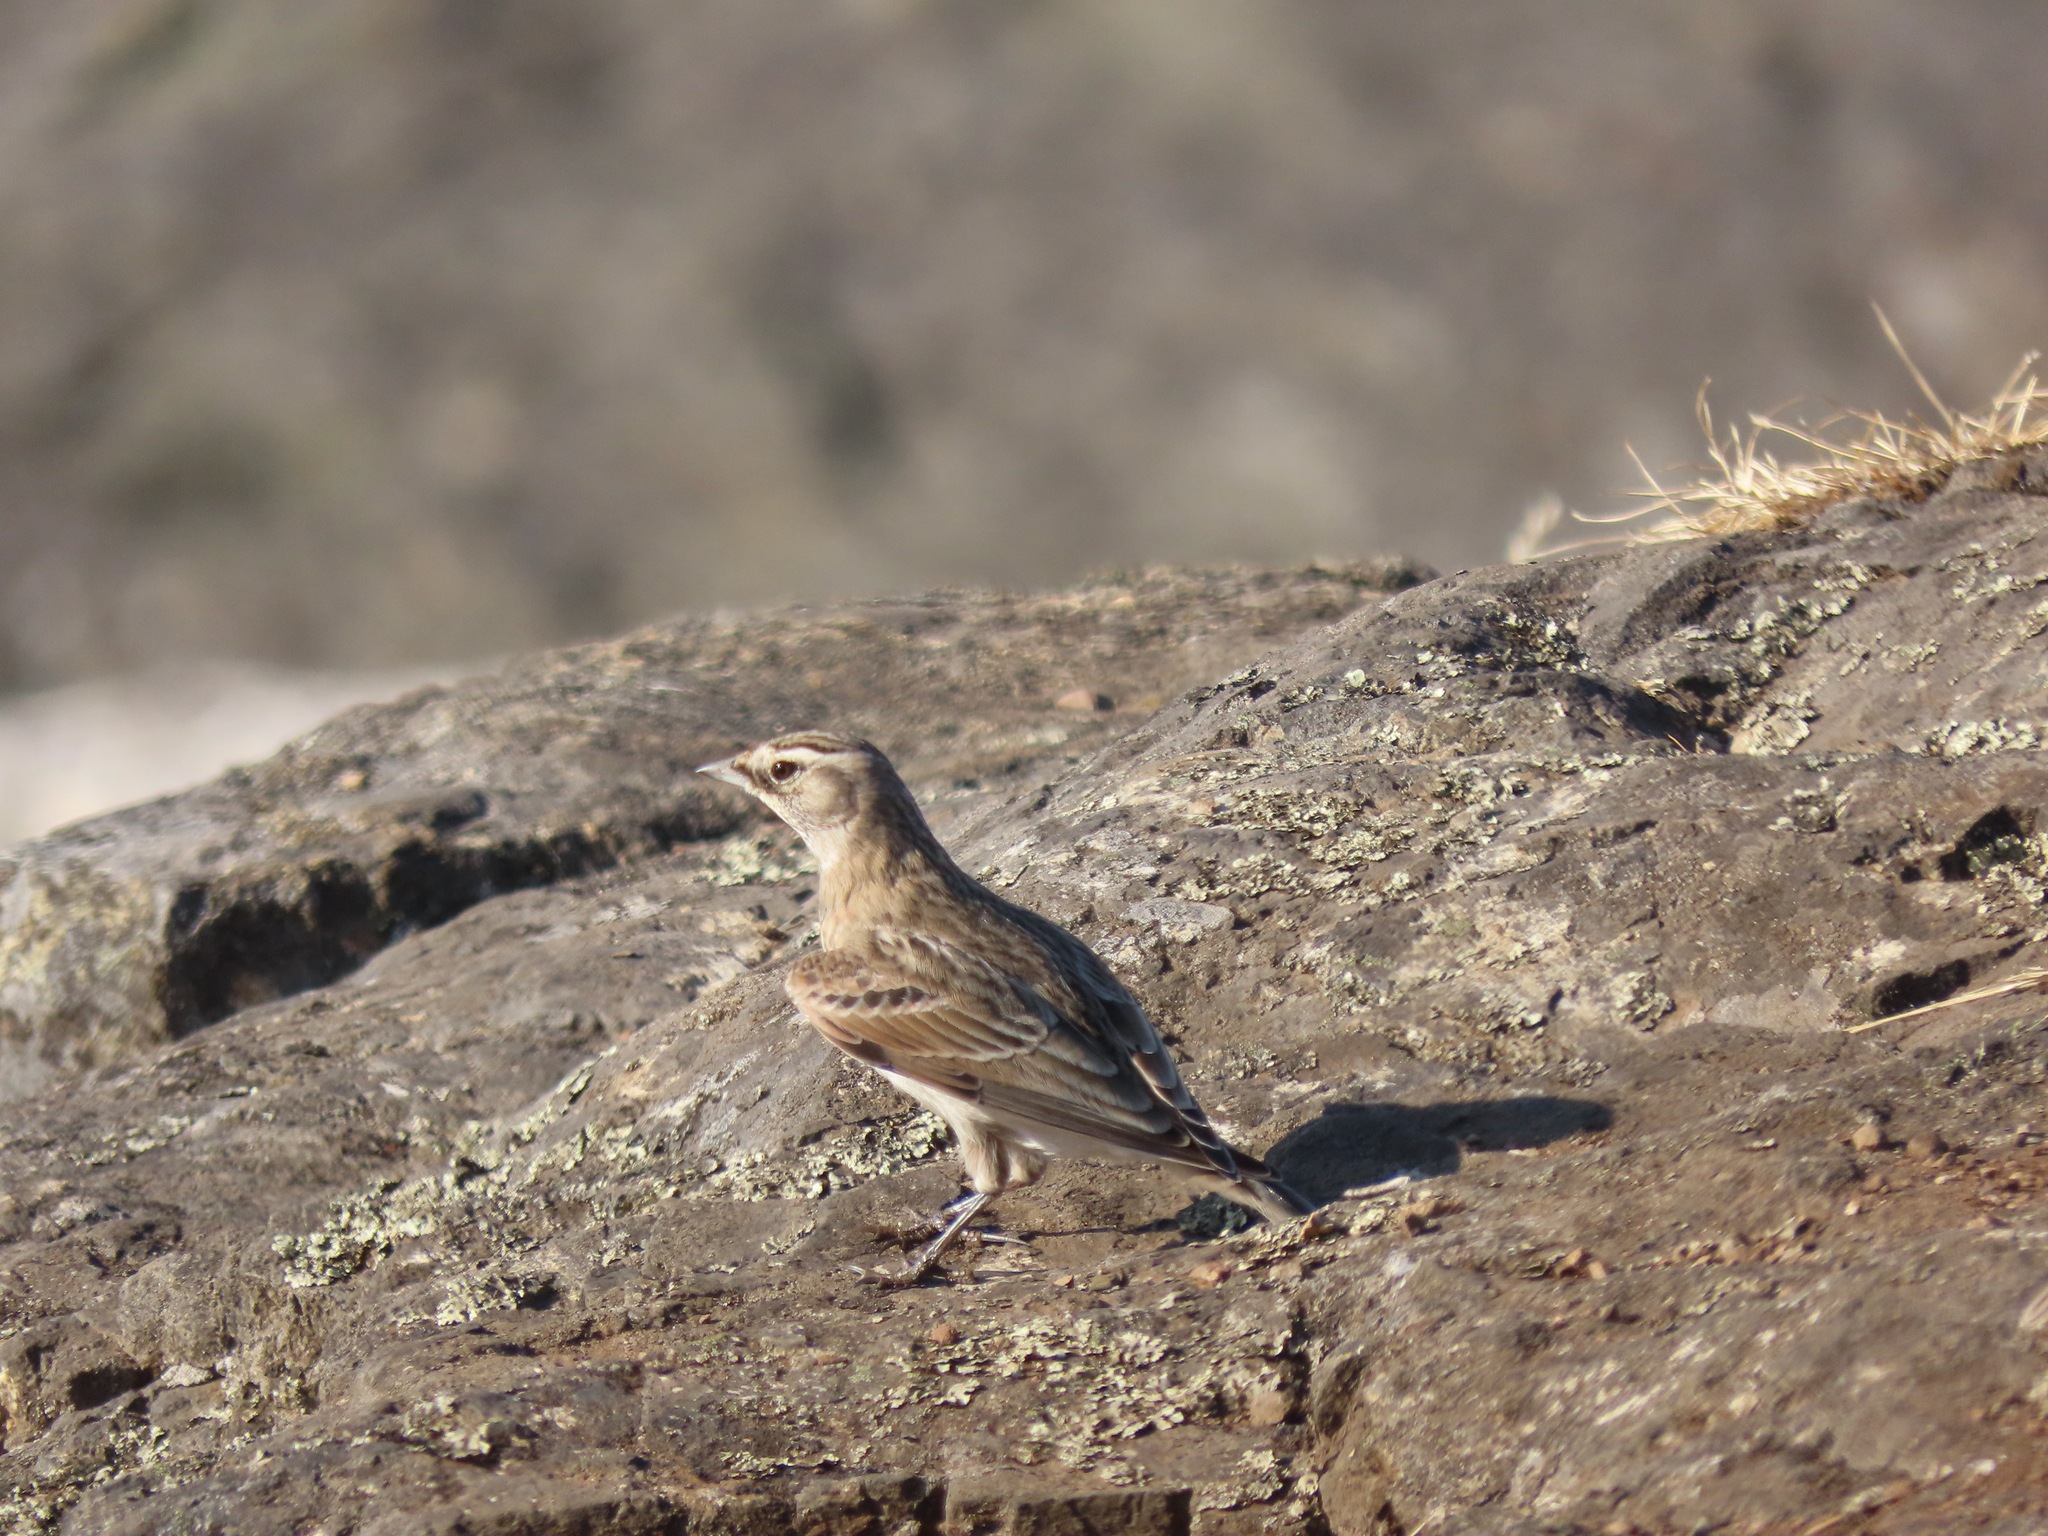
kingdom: Animalia
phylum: Chordata
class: Aves
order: Passeriformes
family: Alaudidae
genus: Eremophila
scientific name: Eremophila alpestris
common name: Horned lark
